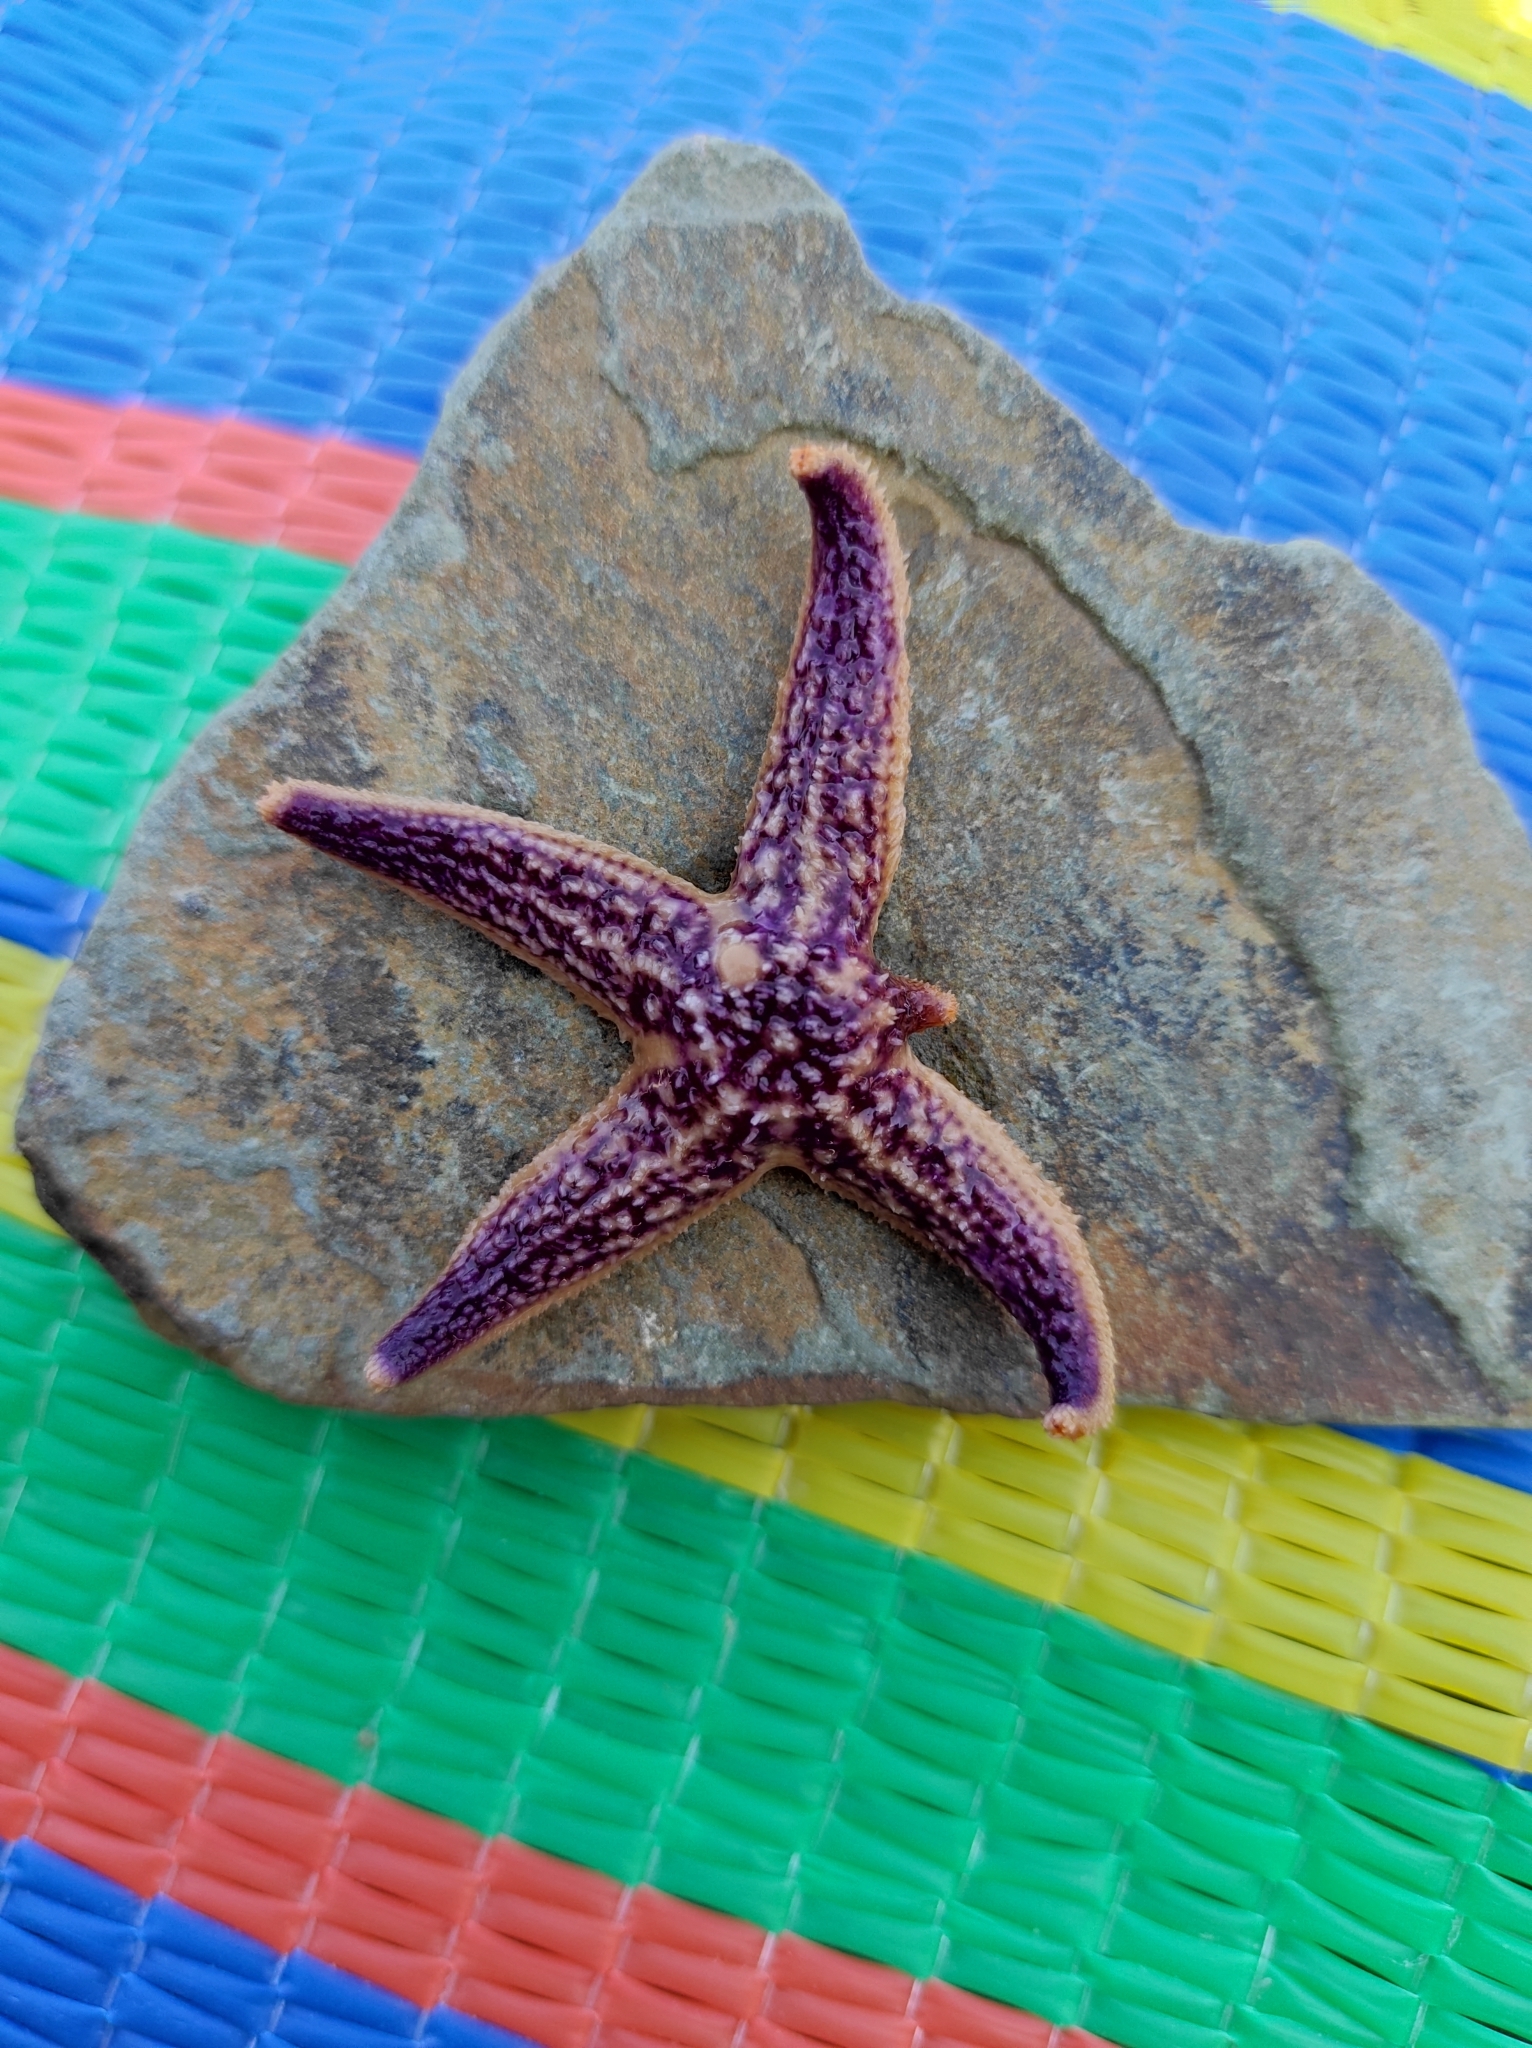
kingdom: Animalia
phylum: Echinodermata
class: Asteroidea
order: Forcipulatida
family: Asteriidae
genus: Asterias
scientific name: Asterias amurensis
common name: Flat-bottomed star
